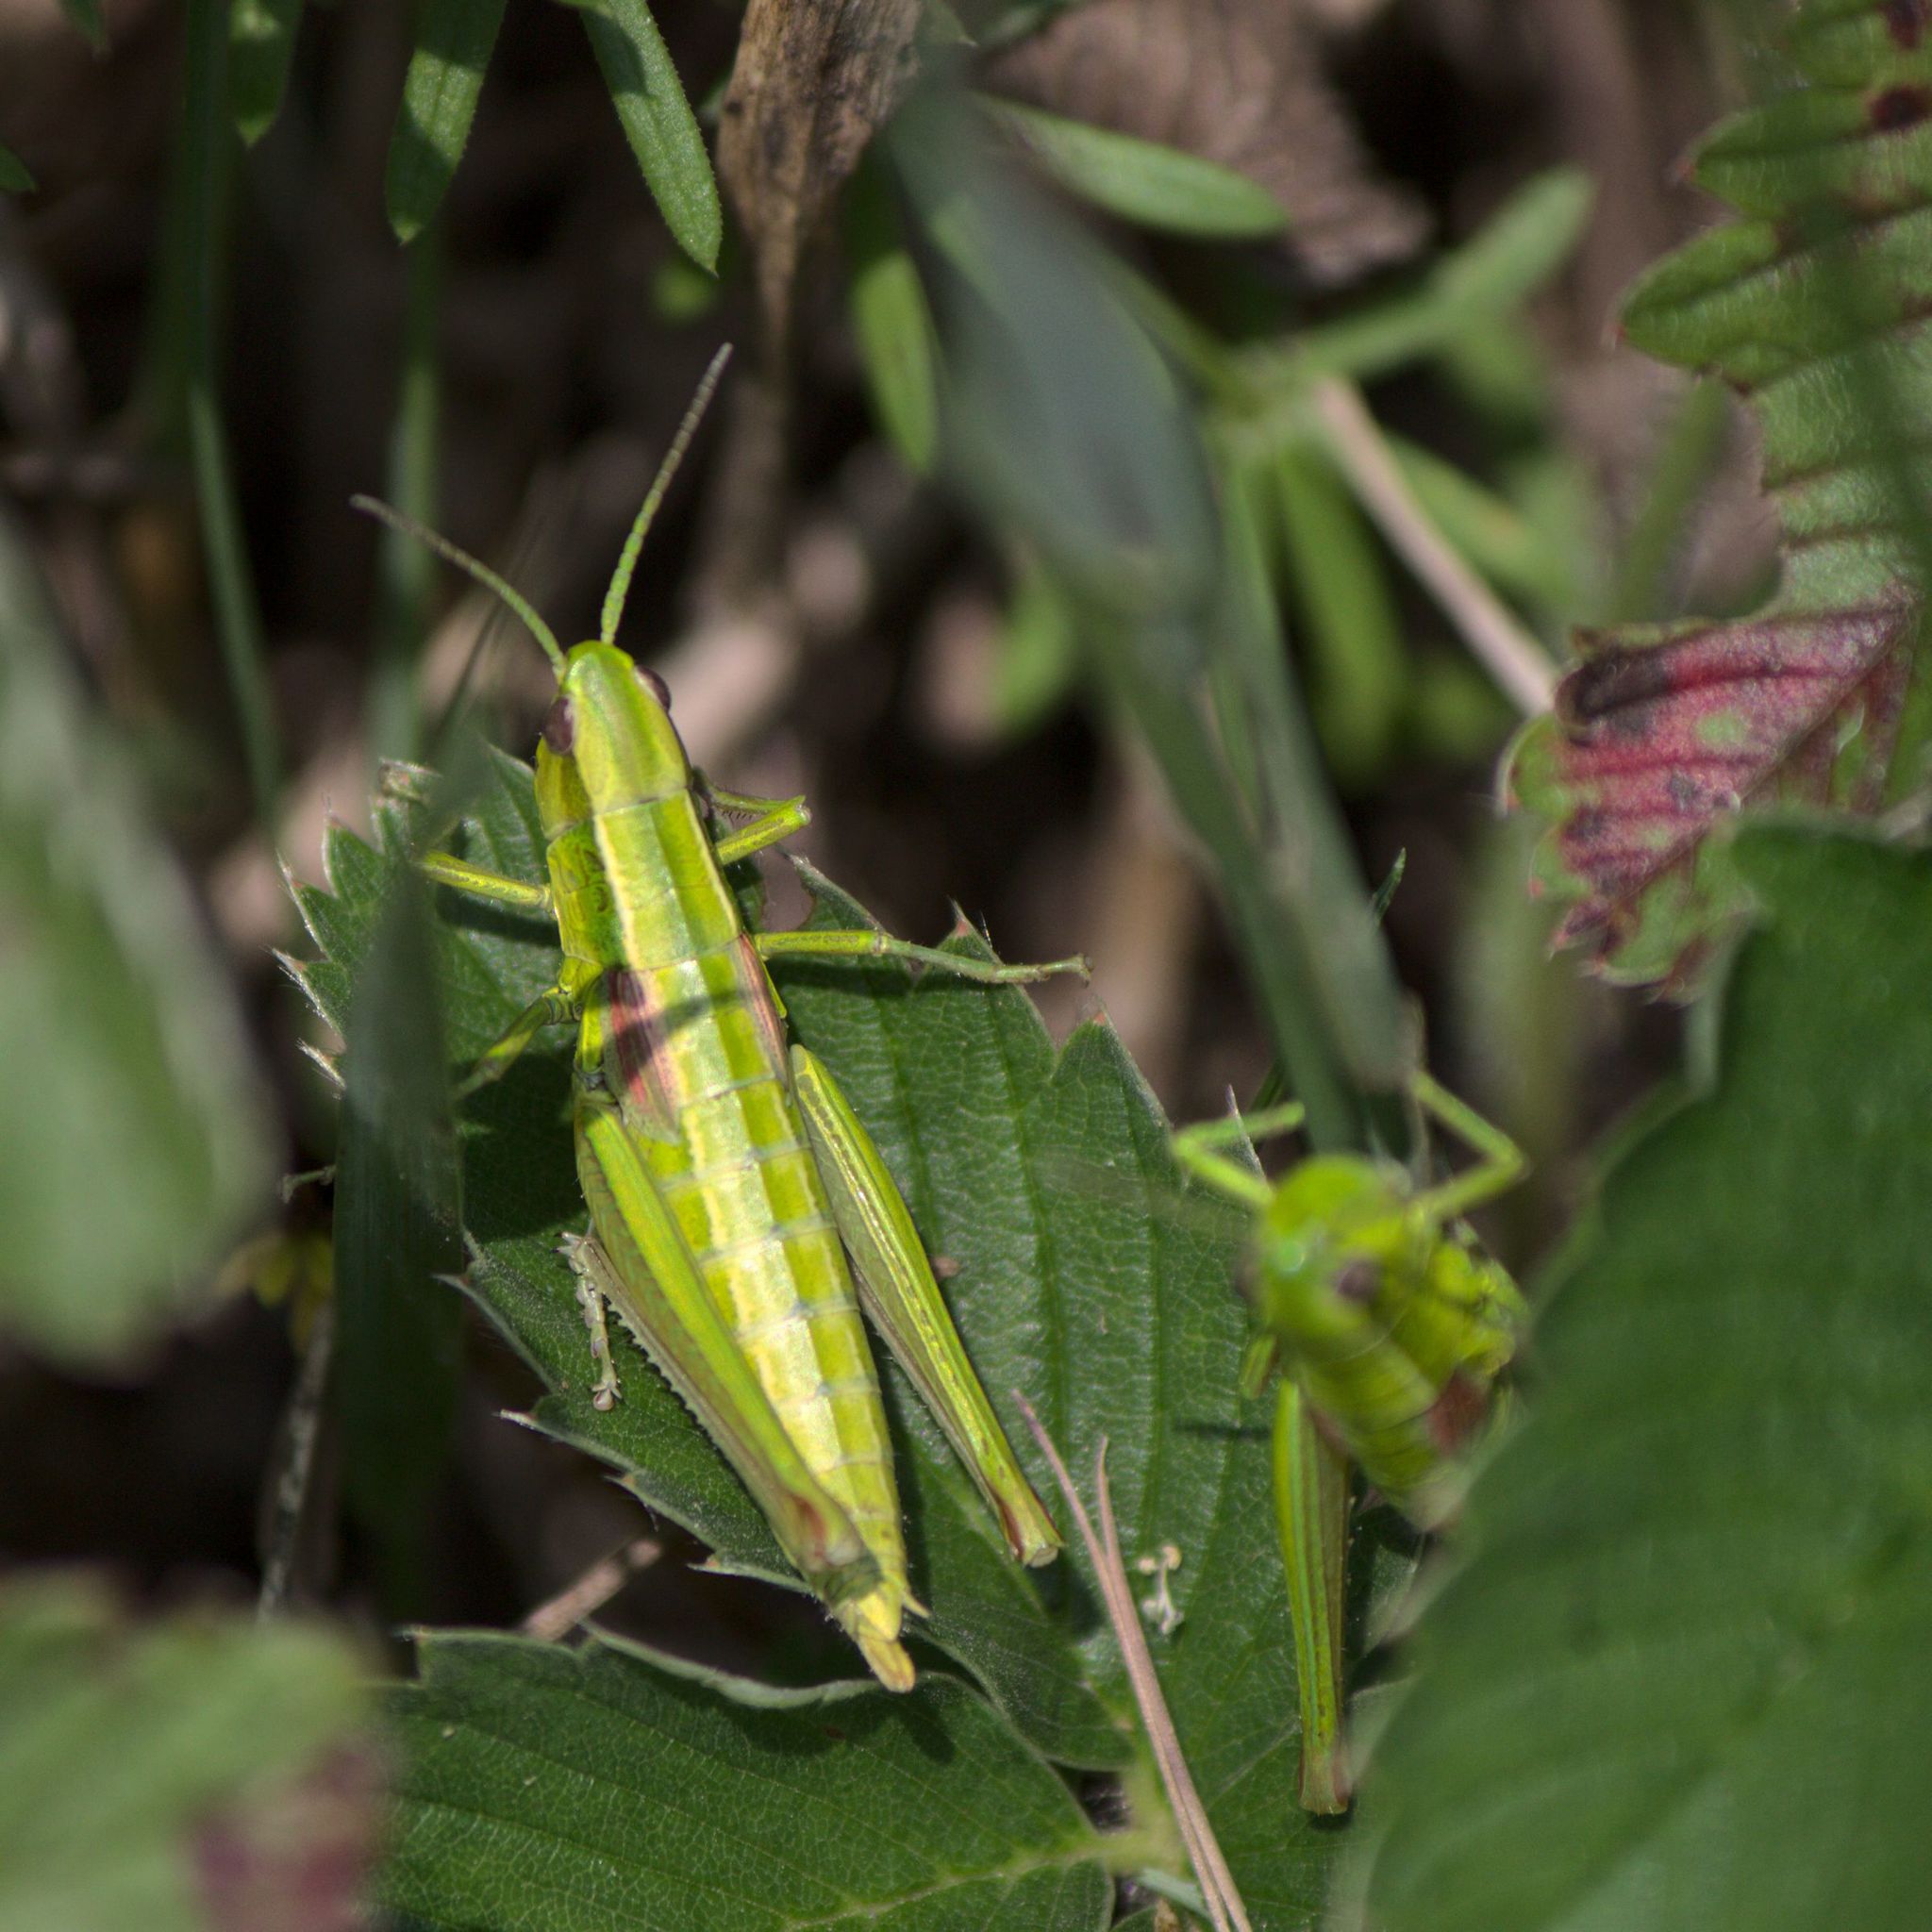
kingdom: Animalia
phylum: Arthropoda
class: Insecta
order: Orthoptera
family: Acrididae
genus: Euthystira
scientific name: Euthystira brachyptera
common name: Small gold grasshopper
